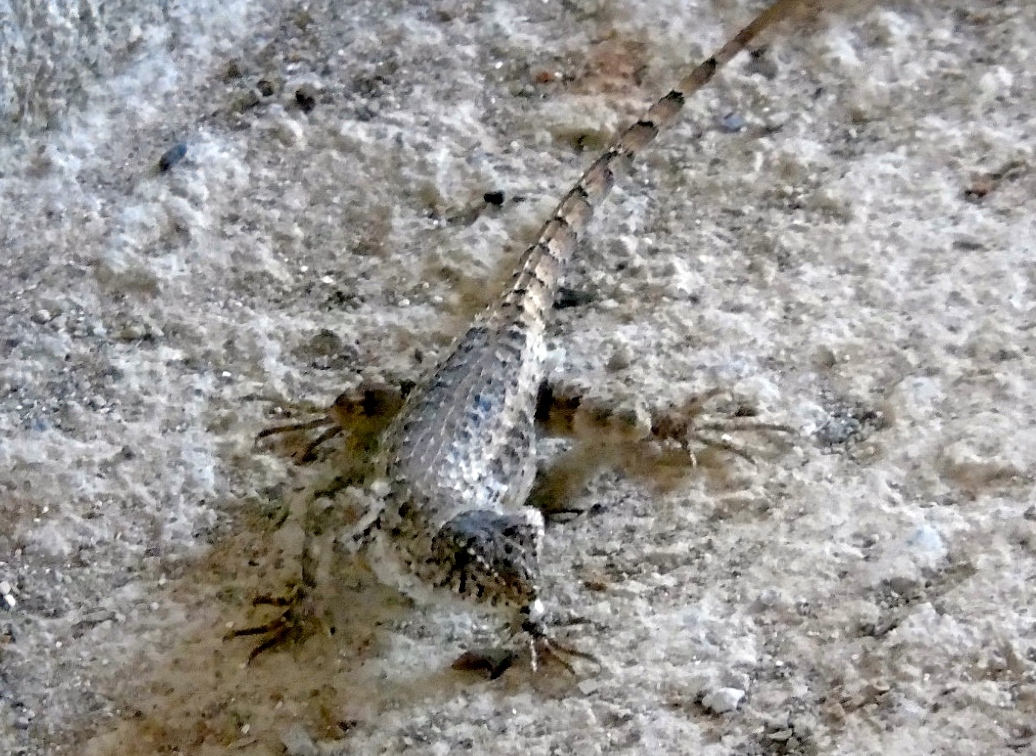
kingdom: Animalia
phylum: Chordata
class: Squamata
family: Phrynosomatidae
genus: Sceloporus
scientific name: Sceloporus nelsoni
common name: Nelson's spiny lizard
